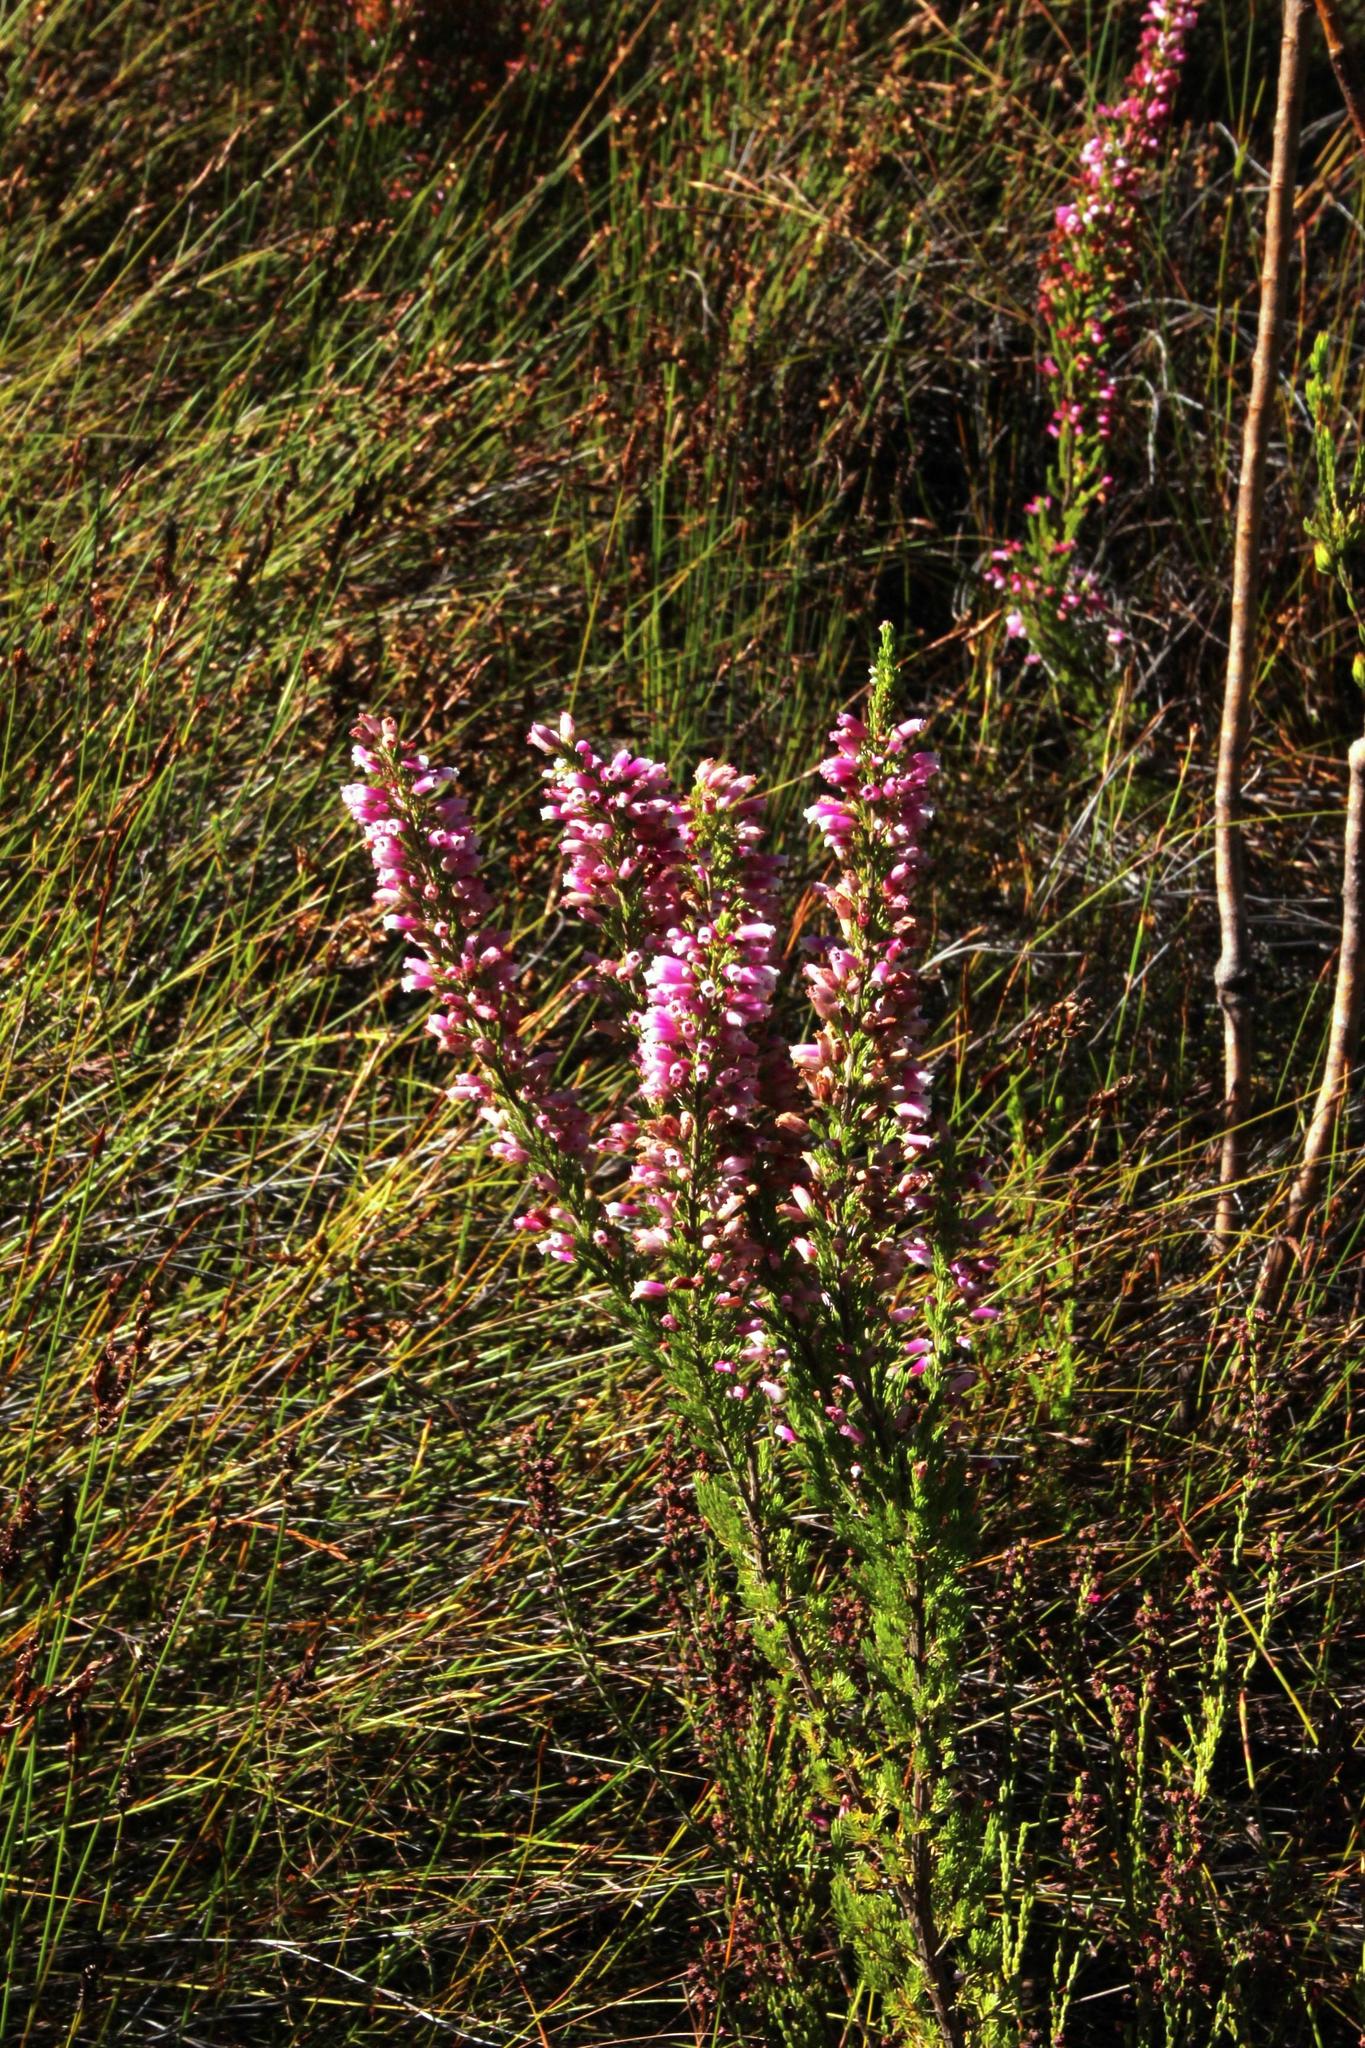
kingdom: Plantae
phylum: Tracheophyta
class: Magnoliopsida
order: Ericales
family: Ericaceae
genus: Erica
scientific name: Erica sitiens
